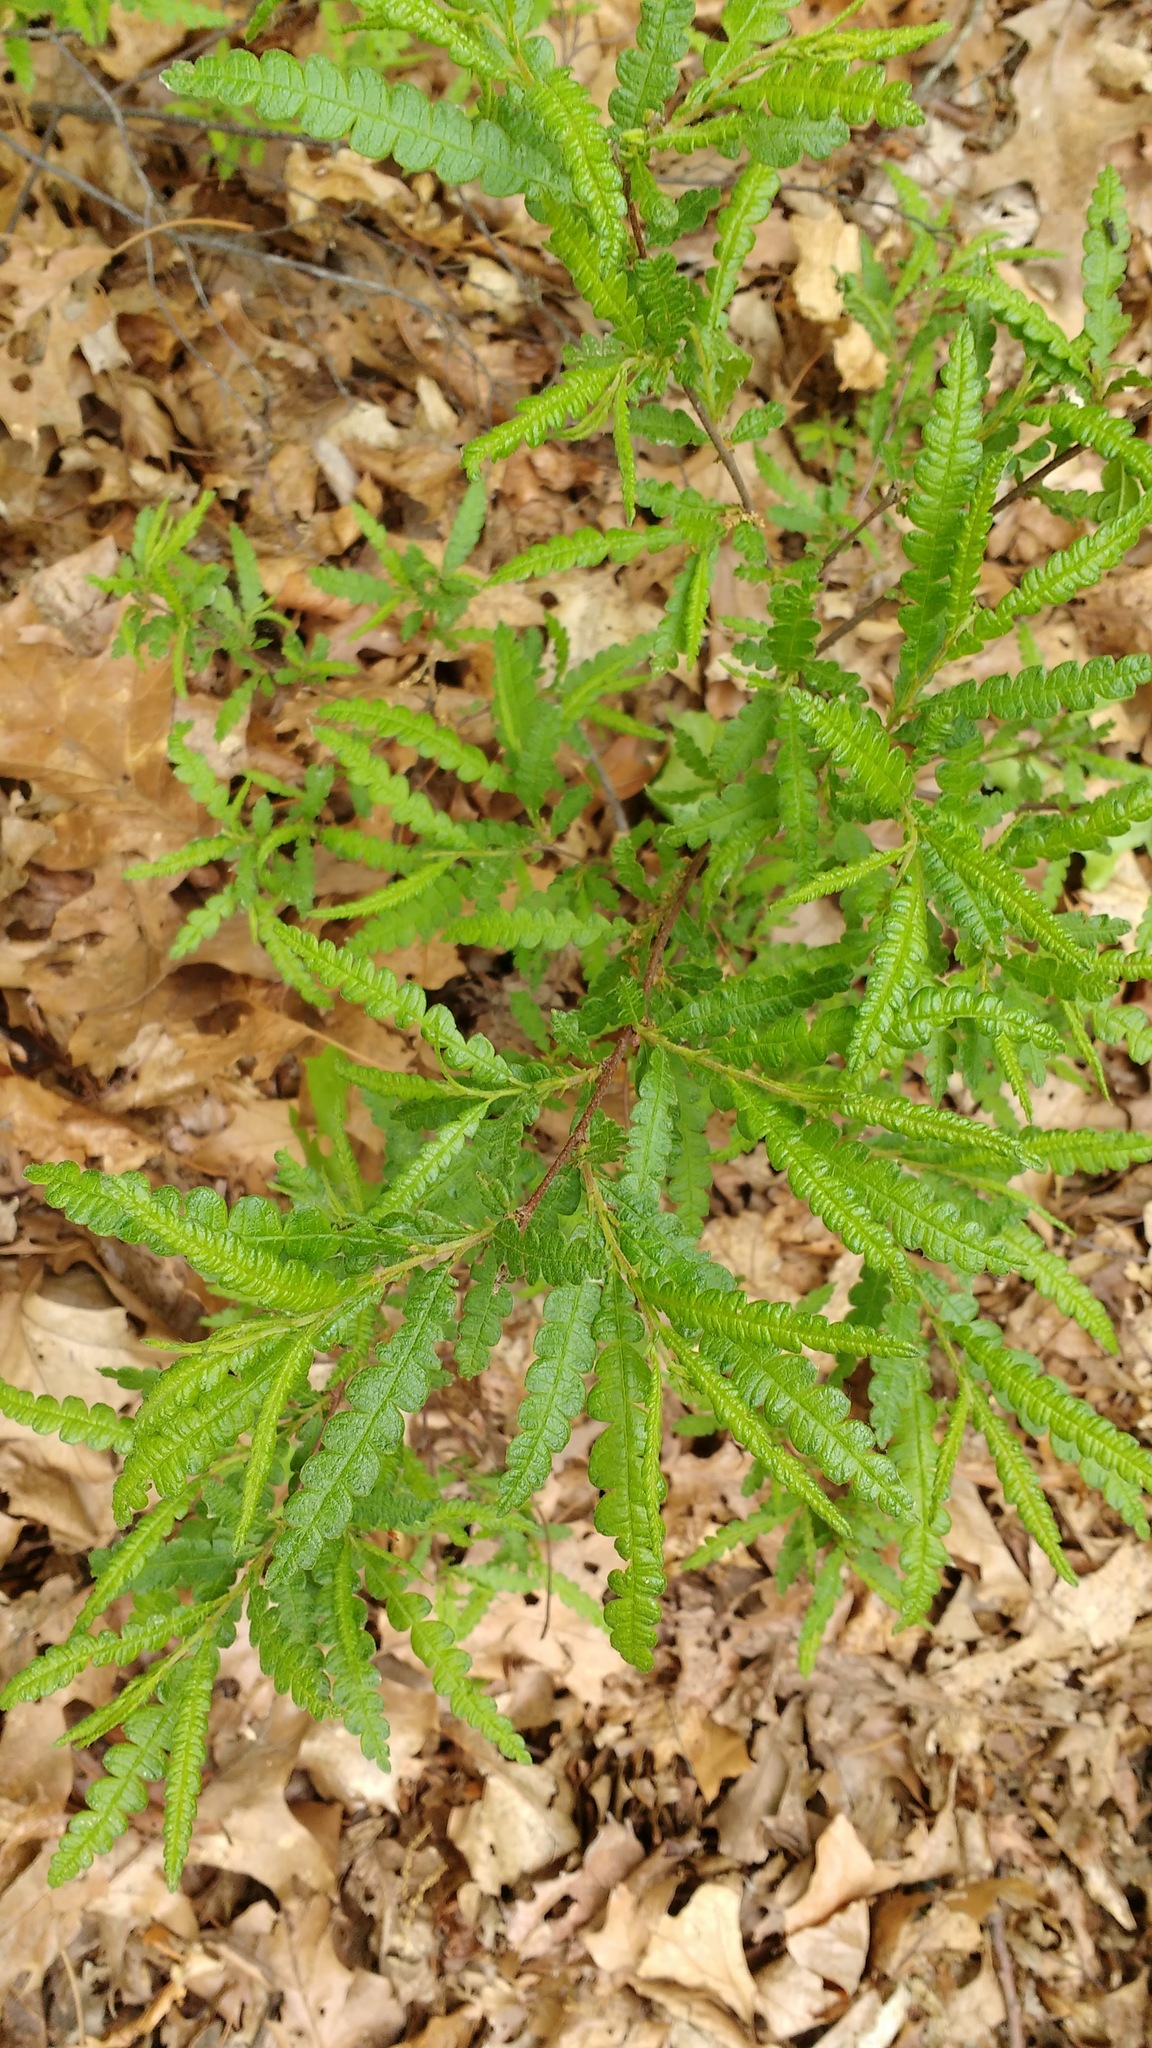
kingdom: Plantae
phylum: Tracheophyta
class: Magnoliopsida
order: Fagales
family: Myricaceae
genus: Comptonia
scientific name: Comptonia peregrina
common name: Sweet-fern
